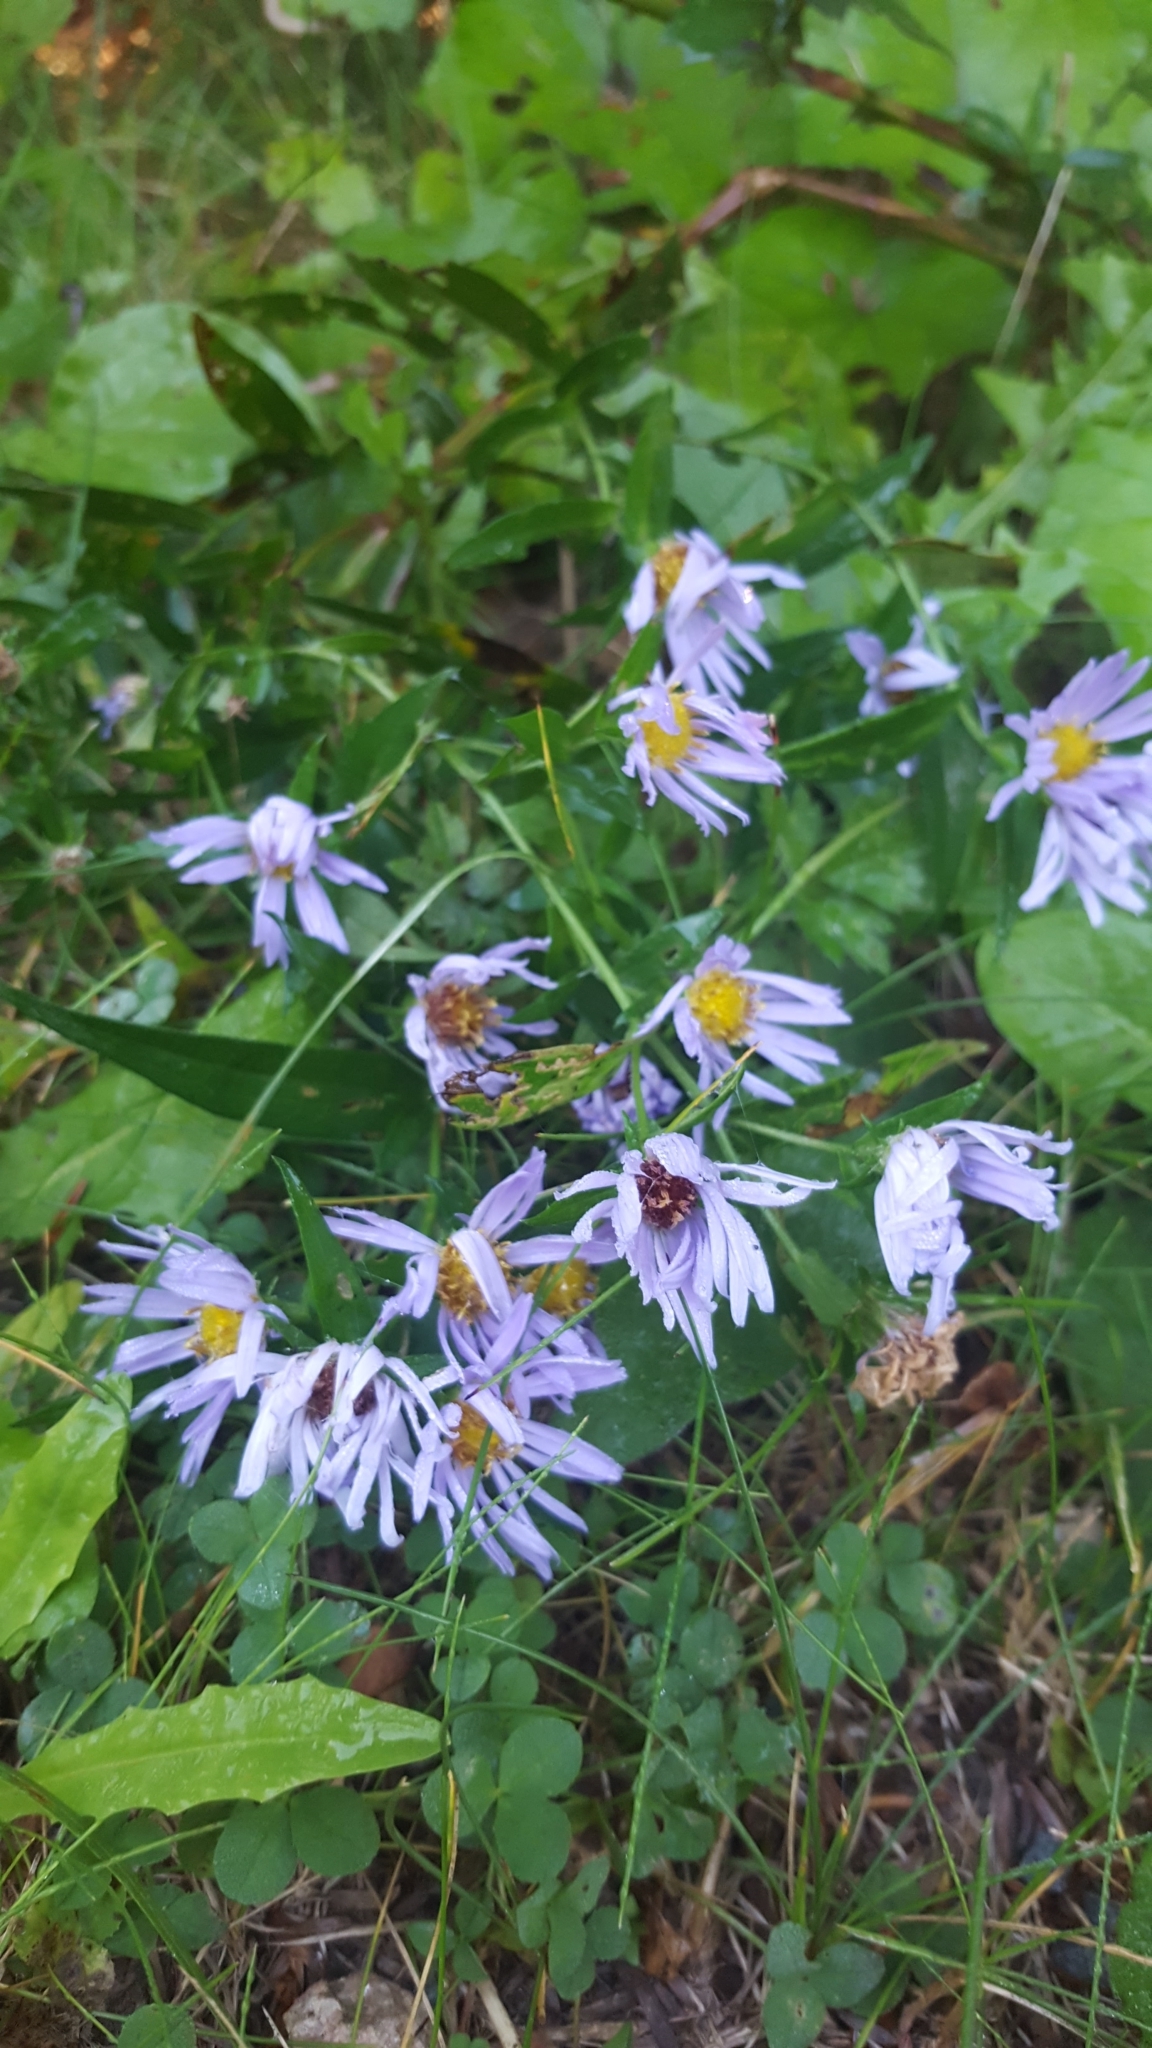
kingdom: Plantae
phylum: Tracheophyta
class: Magnoliopsida
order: Asterales
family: Asteraceae
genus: Symphyotrichum
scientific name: Symphyotrichum novi-belgii
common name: Michaelmas daisy
